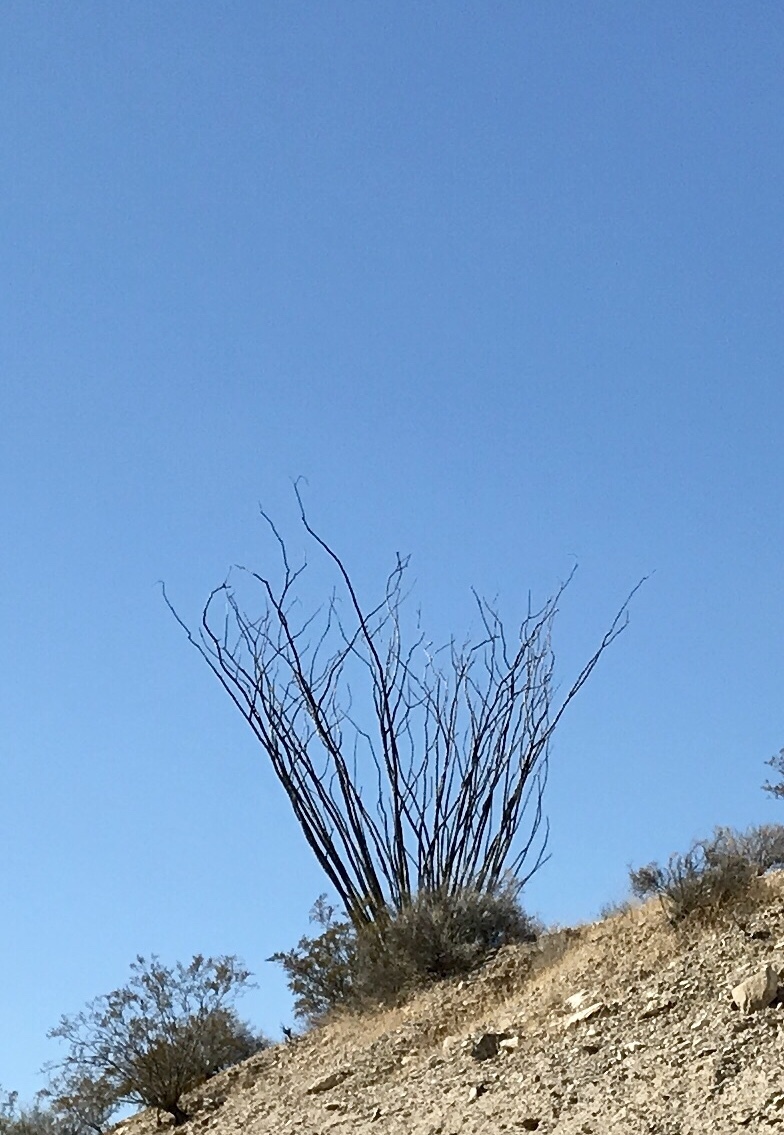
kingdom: Plantae
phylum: Tracheophyta
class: Magnoliopsida
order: Ericales
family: Fouquieriaceae
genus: Fouquieria
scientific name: Fouquieria splendens
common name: Vine-cactus
